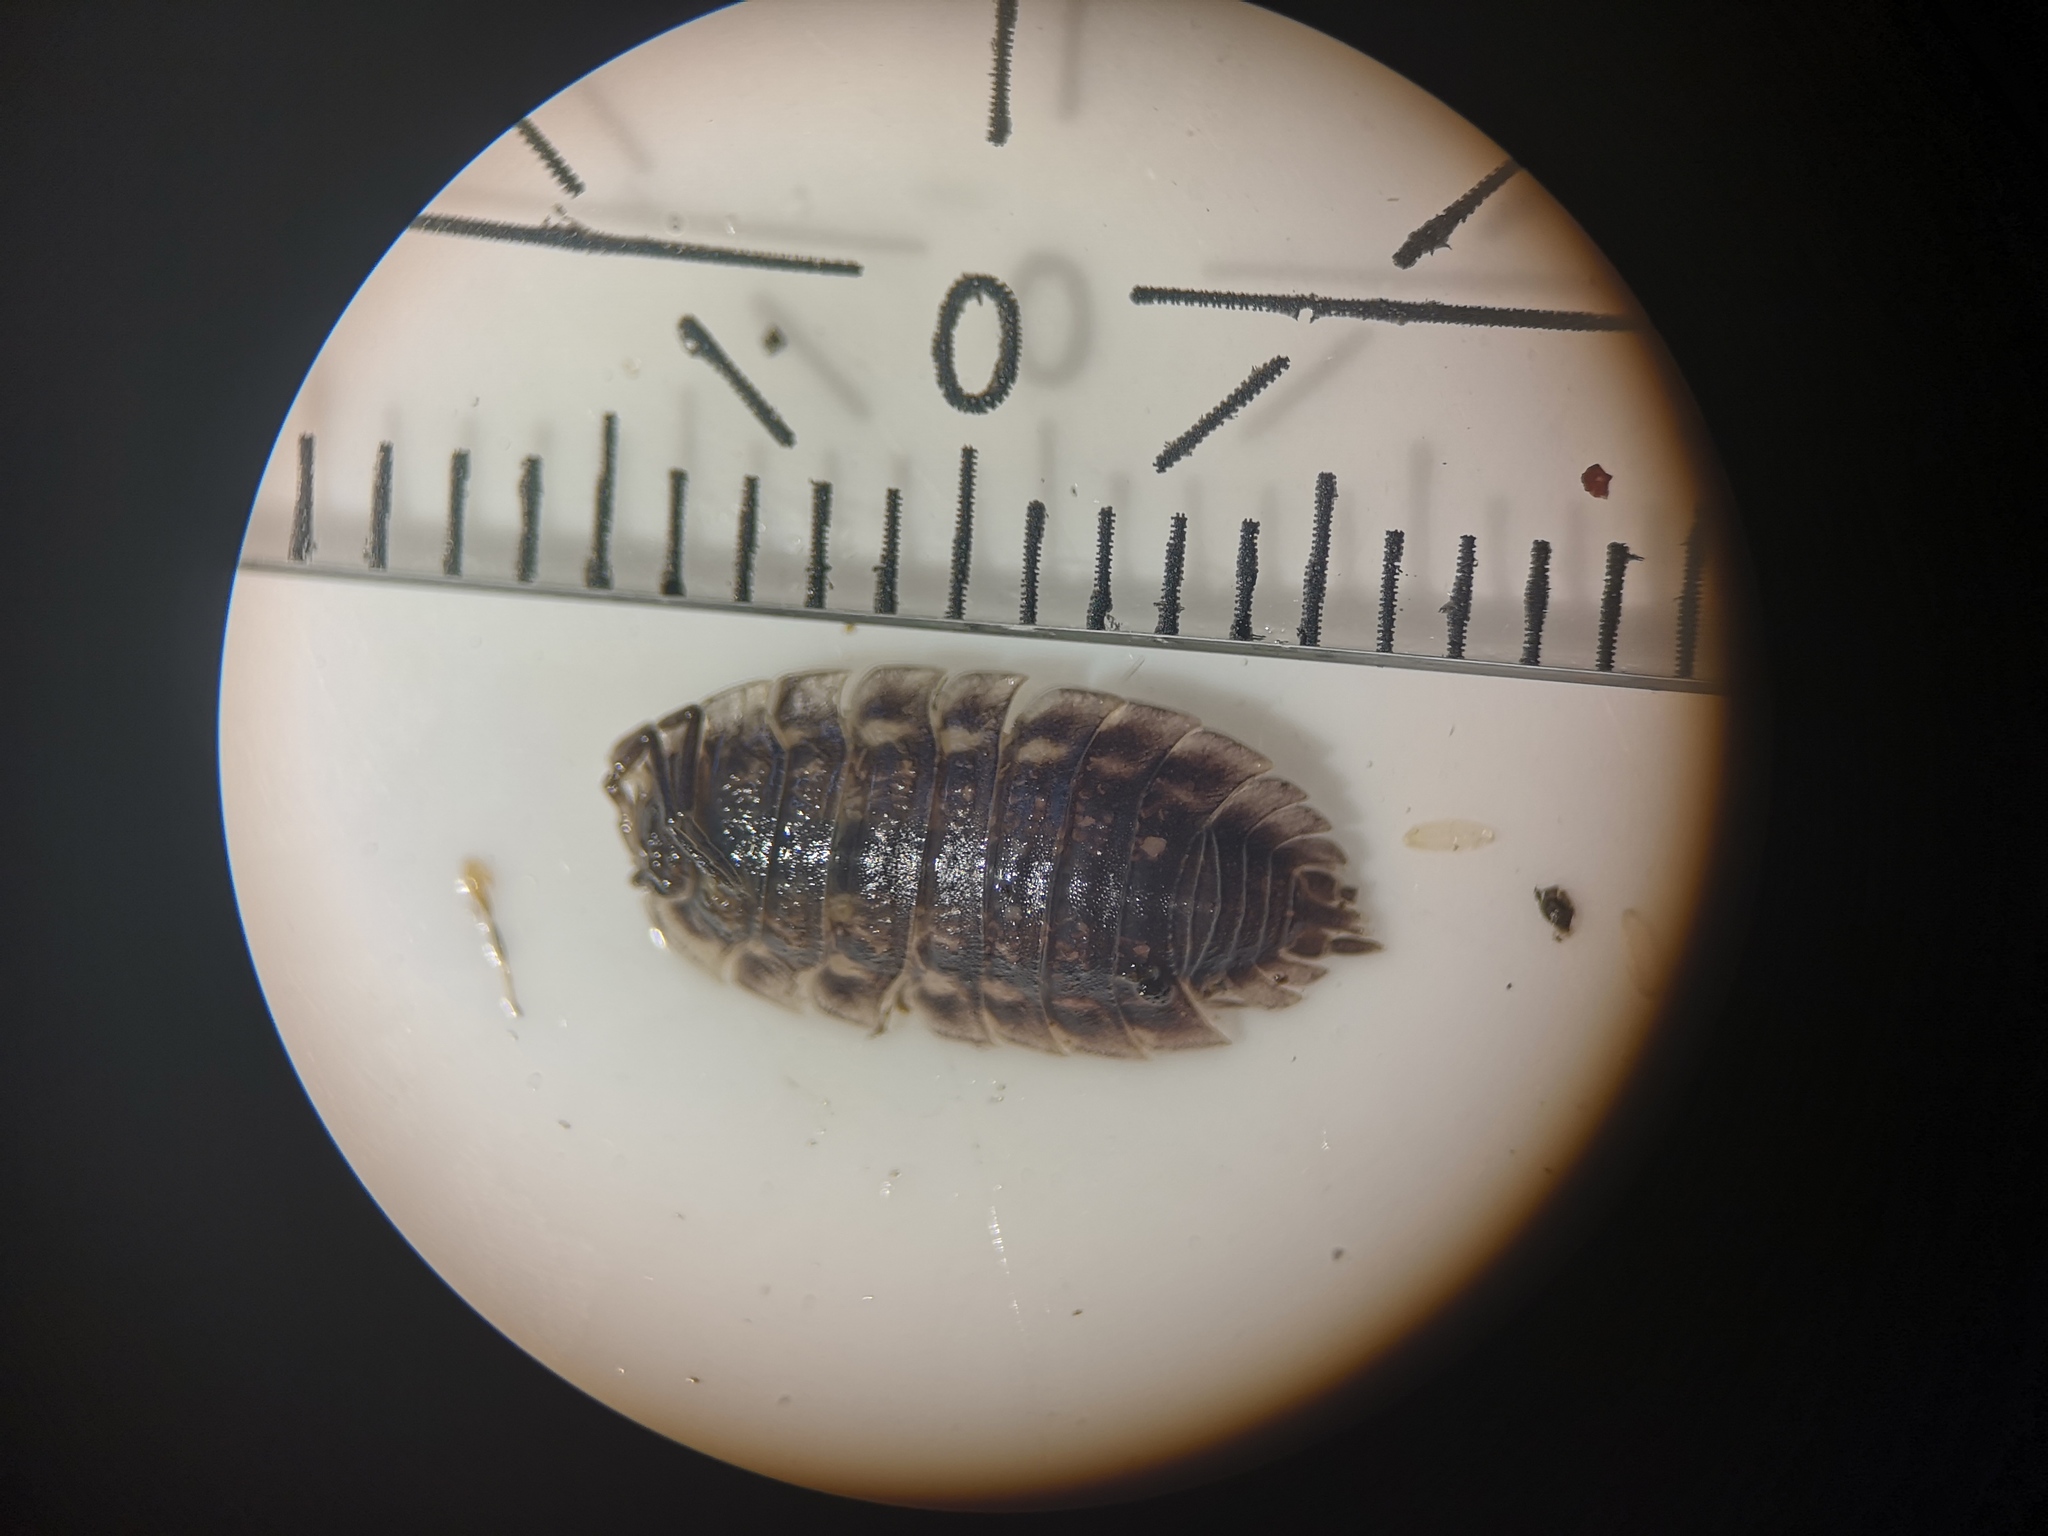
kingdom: Animalia
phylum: Arthropoda
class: Malacostraca
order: Isopoda
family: Oniscidae
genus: Oniscus
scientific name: Oniscus asellus
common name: Common shiny woodlouse
